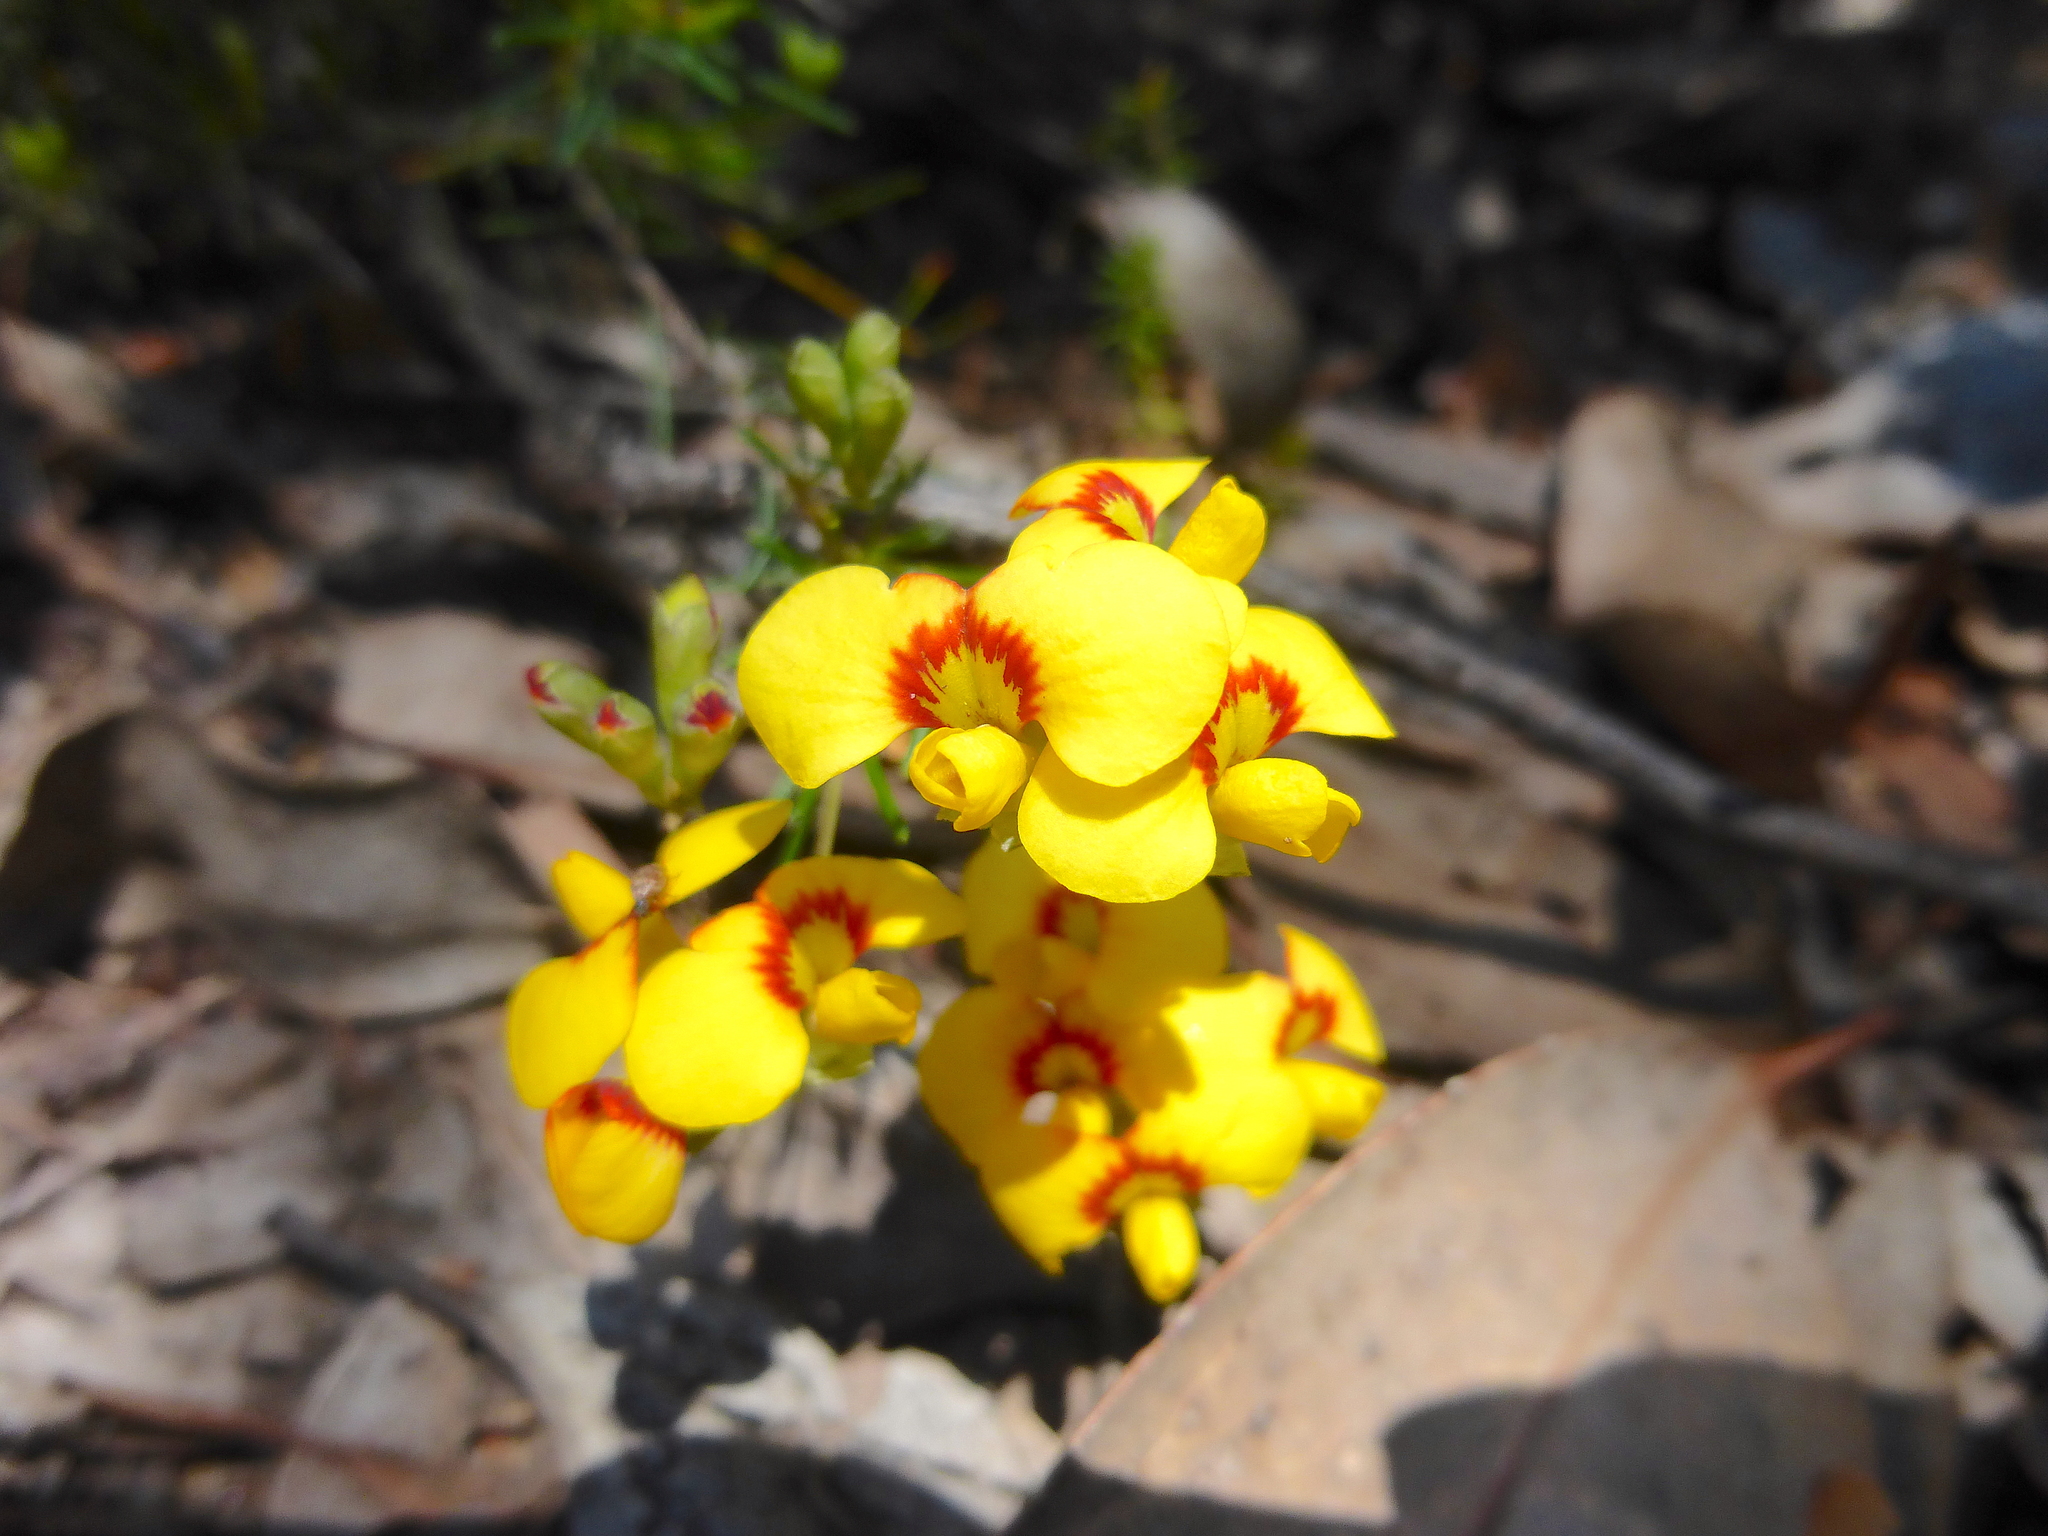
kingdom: Plantae
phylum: Tracheophyta
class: Magnoliopsida
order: Fabales
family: Fabaceae
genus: Dillwynia
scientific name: Dillwynia glaberrima
